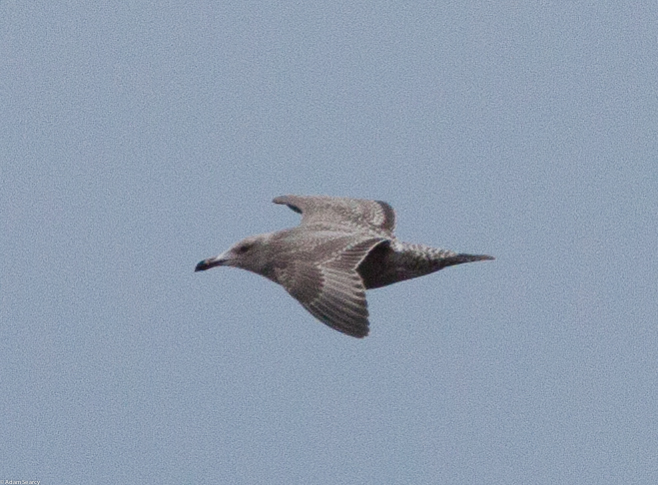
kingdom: Animalia
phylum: Chordata
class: Aves
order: Charadriiformes
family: Laridae
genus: Larus
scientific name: Larus argentatus
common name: Herring gull
